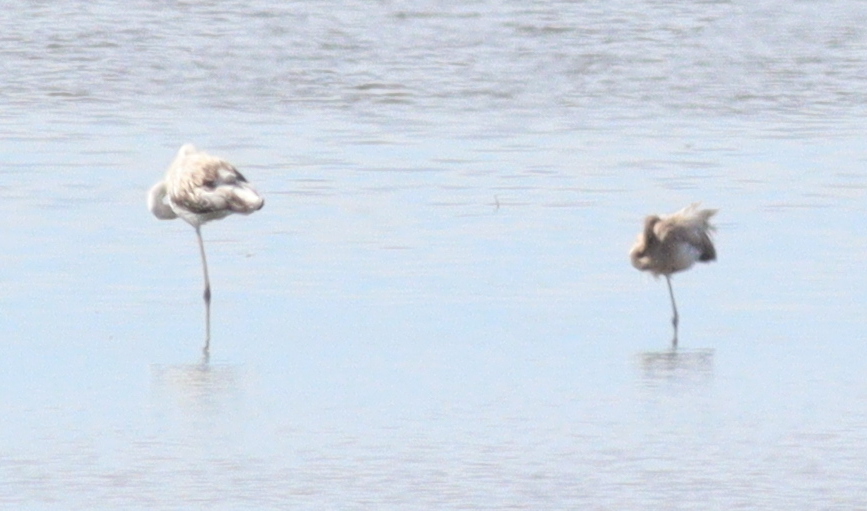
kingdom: Animalia
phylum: Chordata
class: Aves
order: Phoenicopteriformes
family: Phoenicopteridae
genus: Phoenicopterus
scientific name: Phoenicopterus roseus
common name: Greater flamingo
